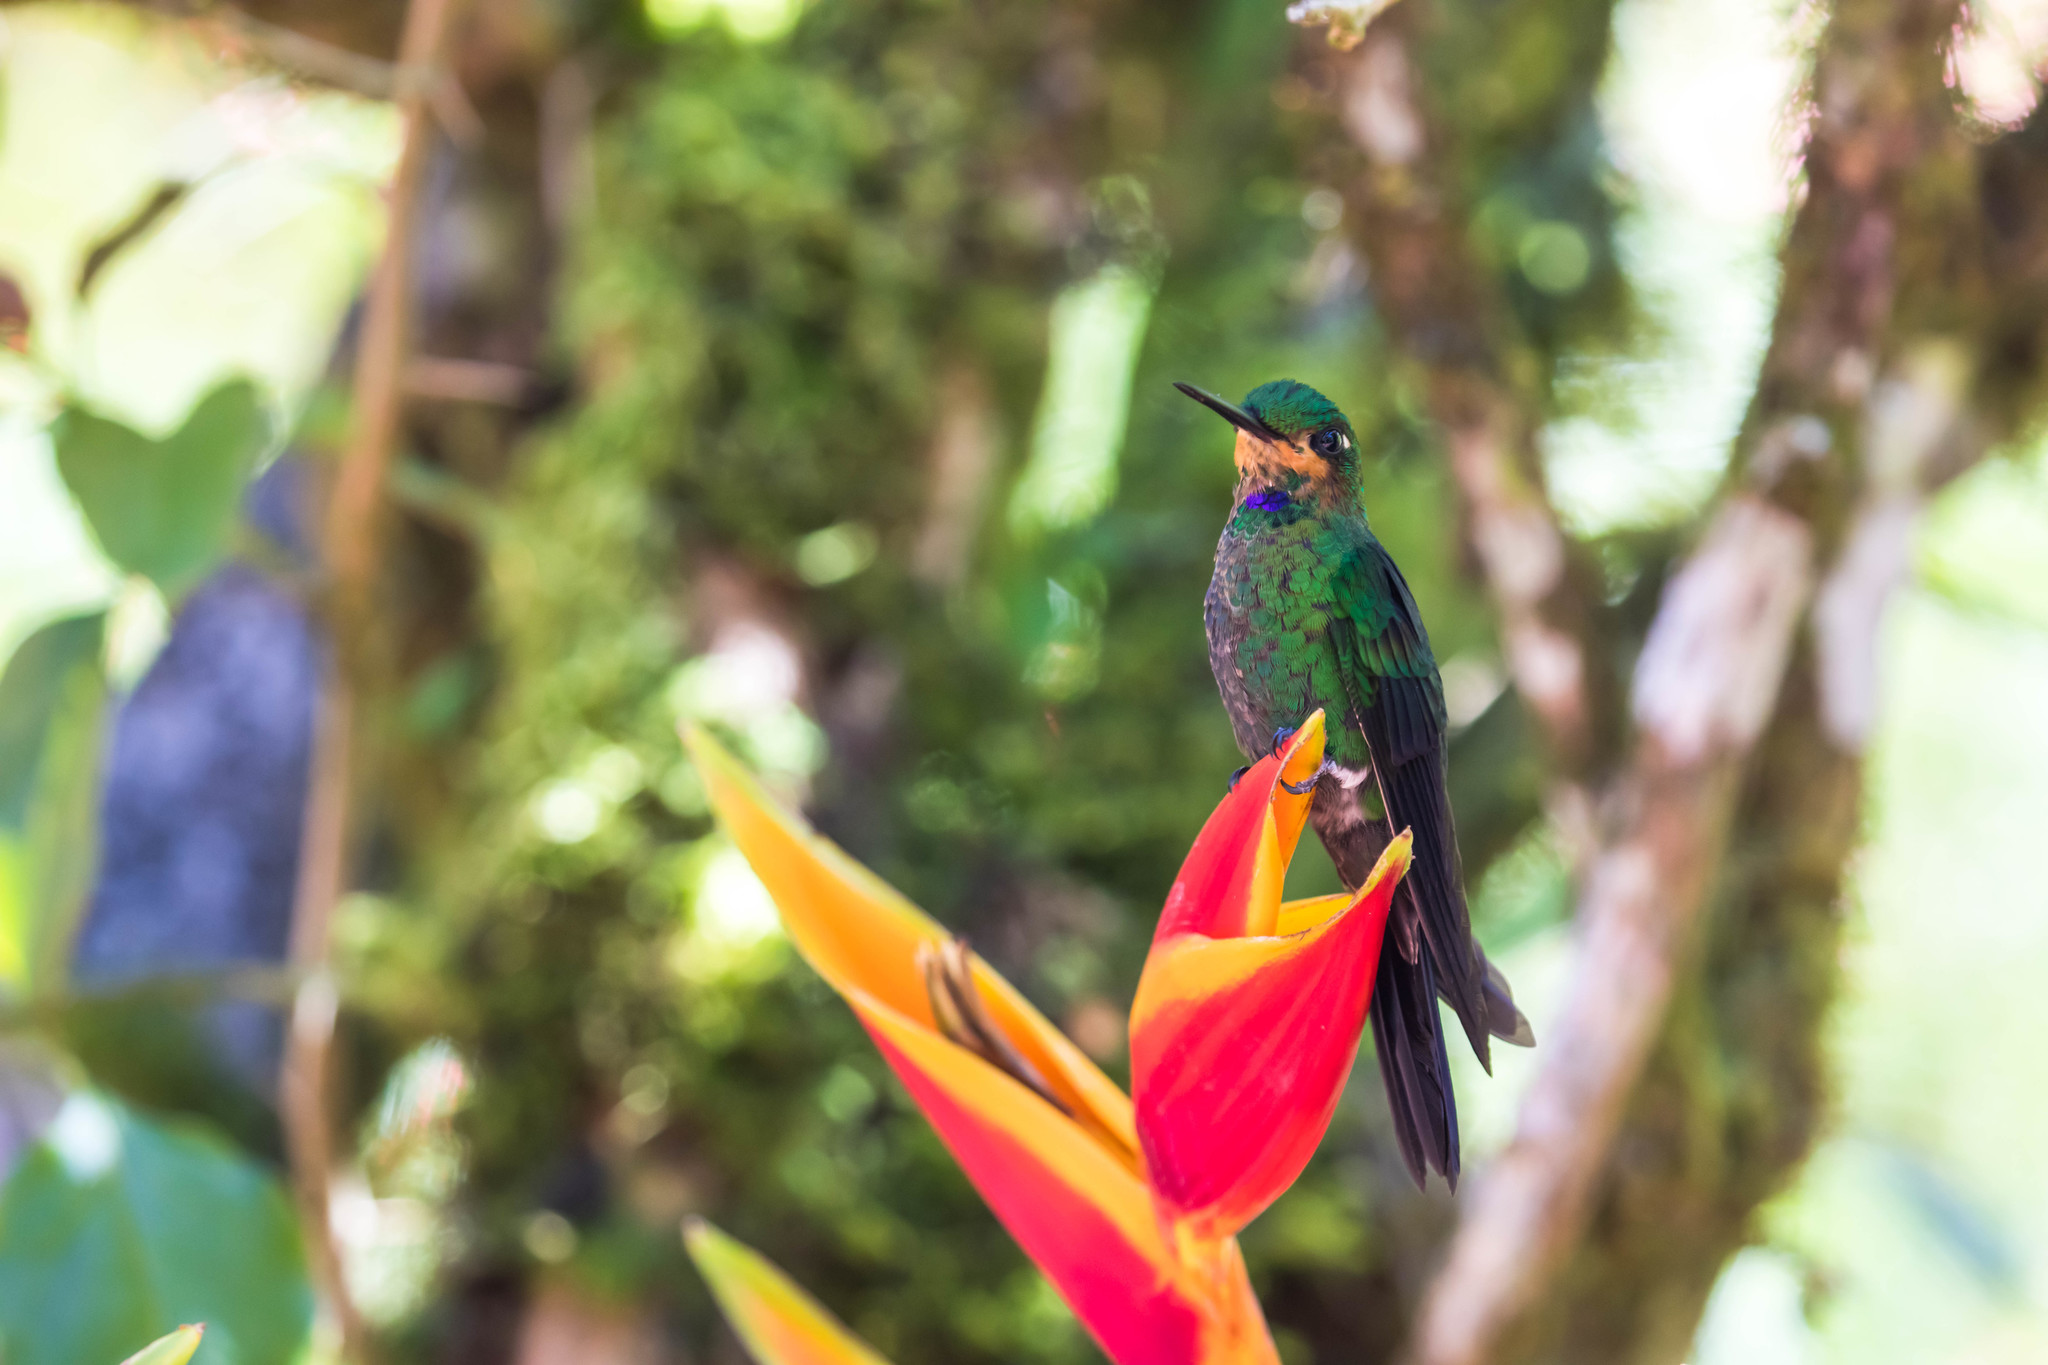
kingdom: Animalia
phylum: Chordata
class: Aves
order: Apodiformes
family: Trochilidae
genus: Heliodoxa
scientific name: Heliodoxa jacula
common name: Green-crowned brilliant
